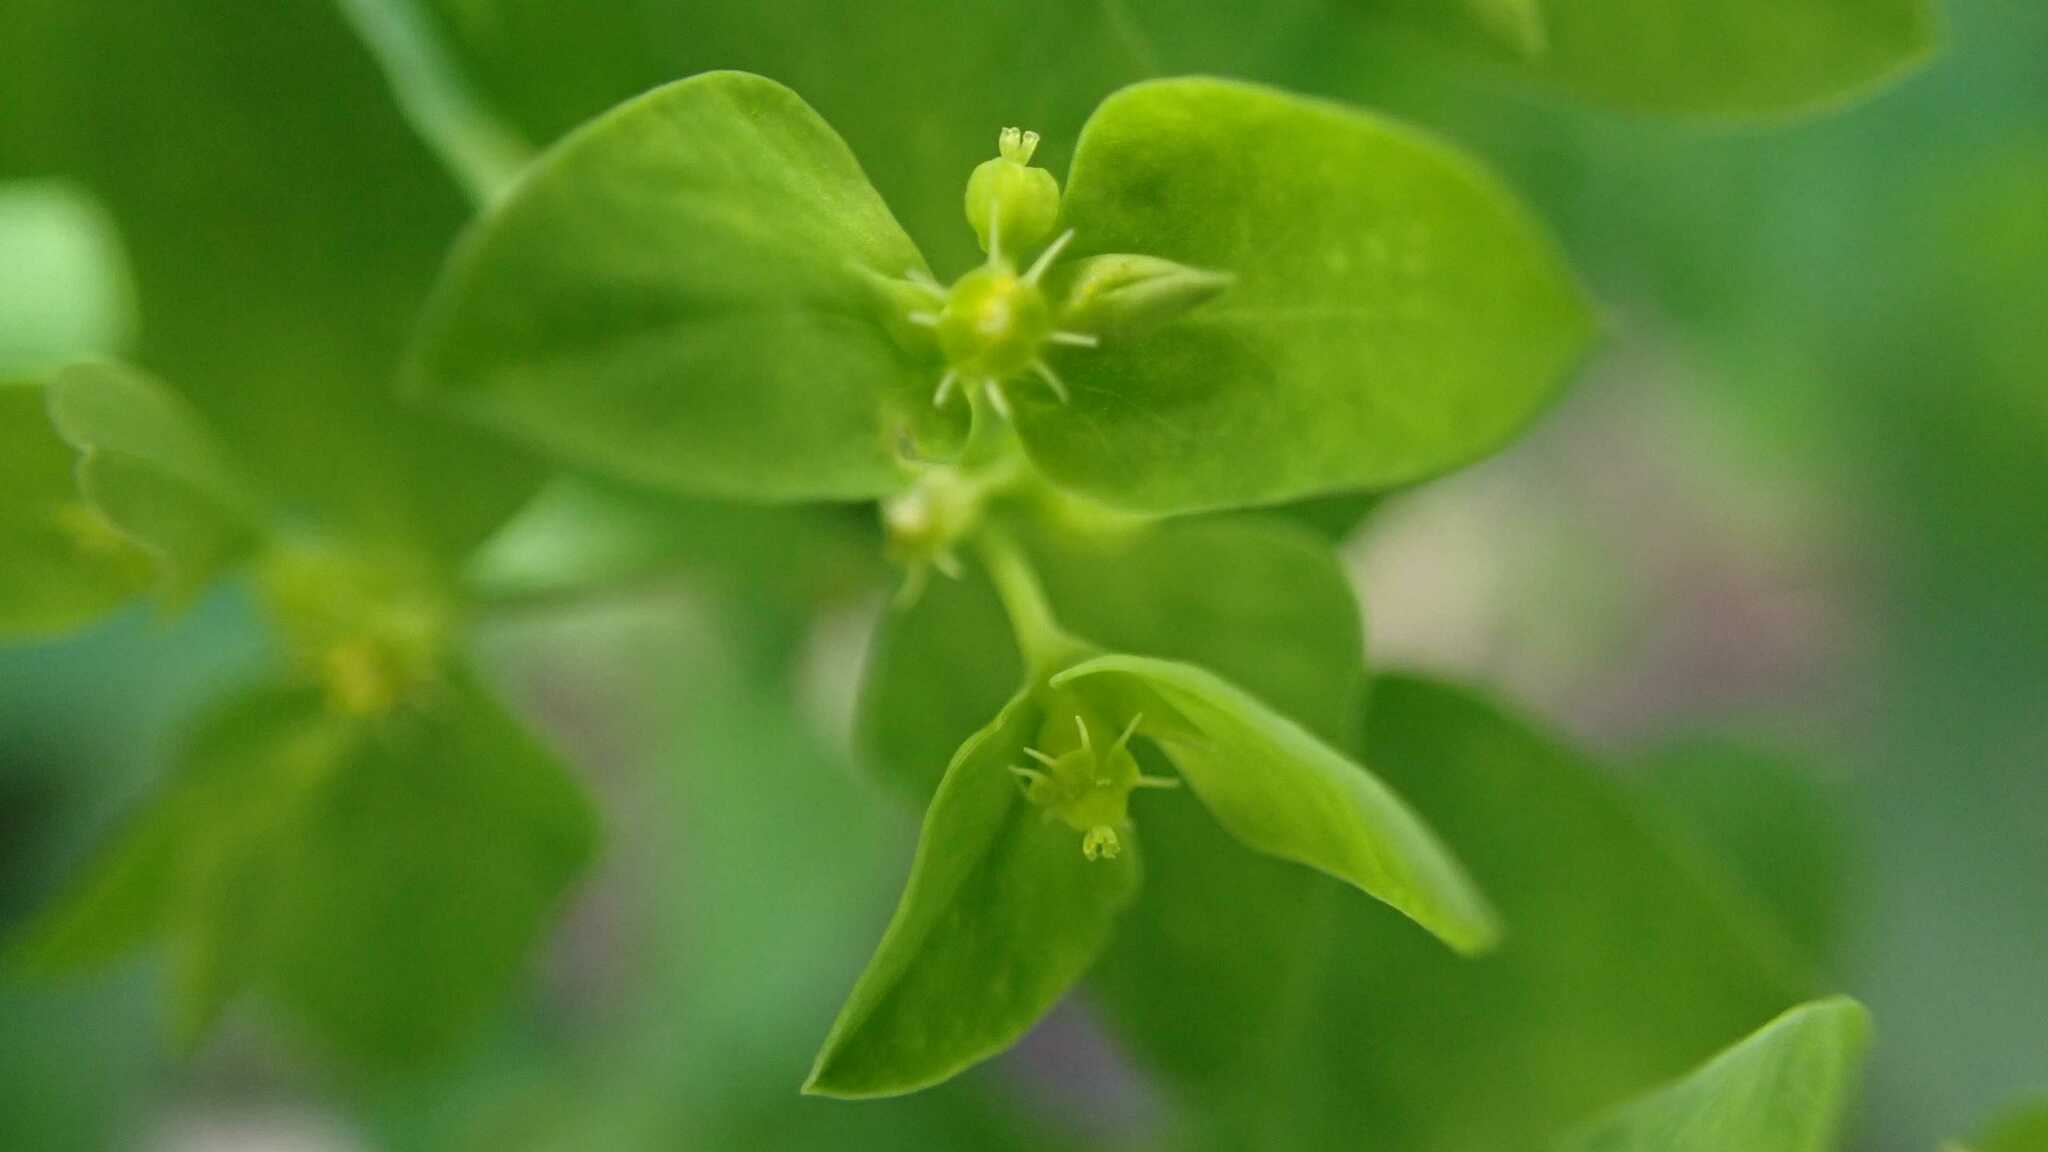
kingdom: Plantae
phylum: Tracheophyta
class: Magnoliopsida
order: Malpighiales
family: Euphorbiaceae
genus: Euphorbia
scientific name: Euphorbia peplus
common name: Petty spurge
